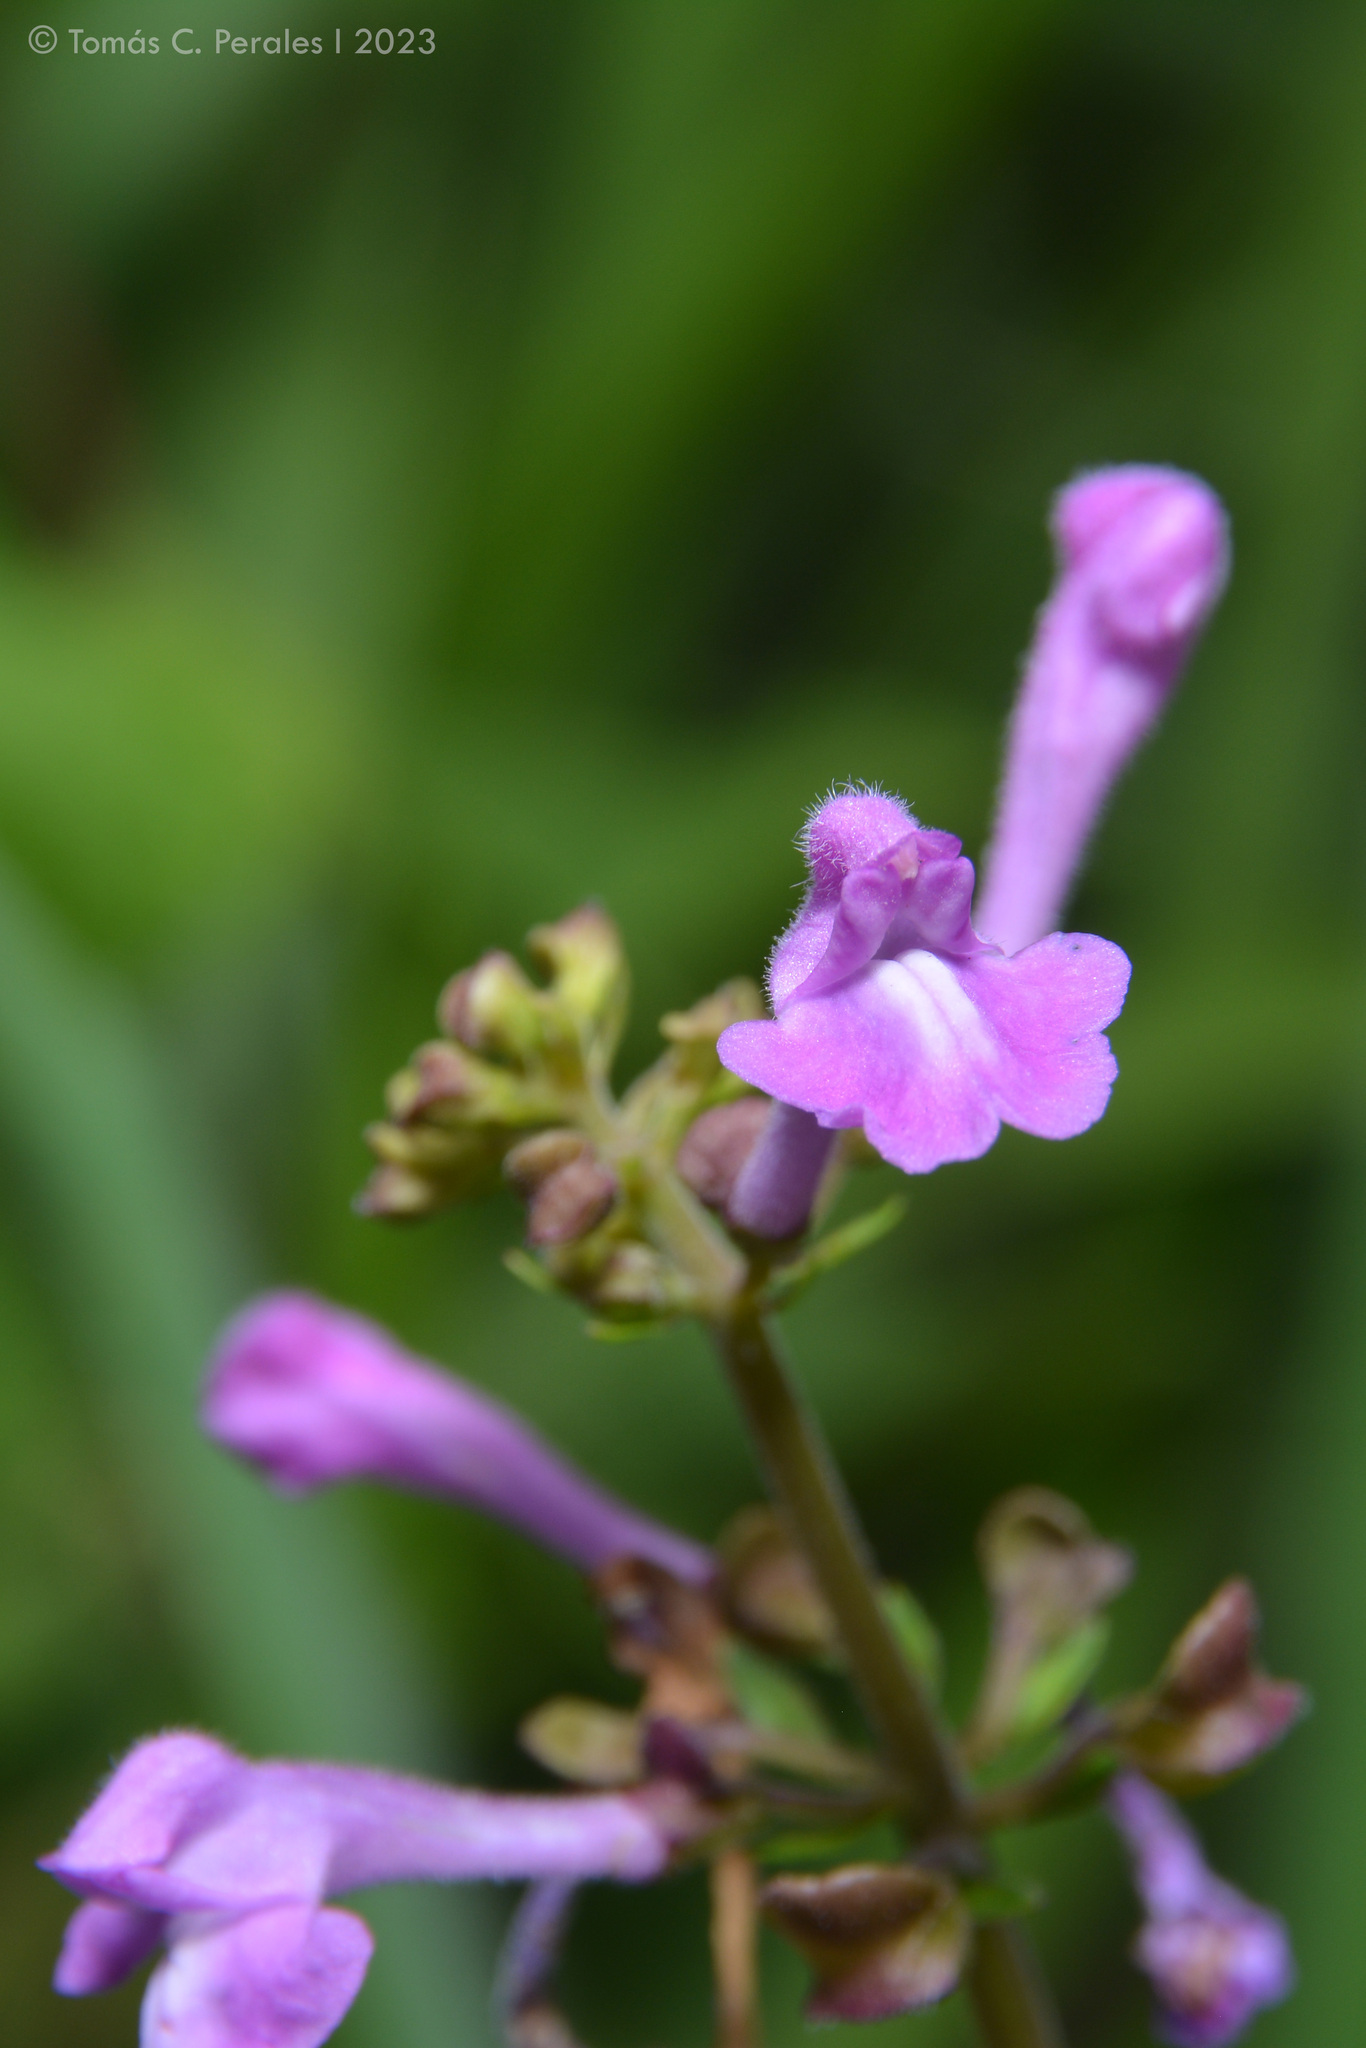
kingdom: Plantae
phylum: Tracheophyta
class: Magnoliopsida
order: Lamiales
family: Lamiaceae
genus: Scutellaria
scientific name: Scutellaria purpurascens
